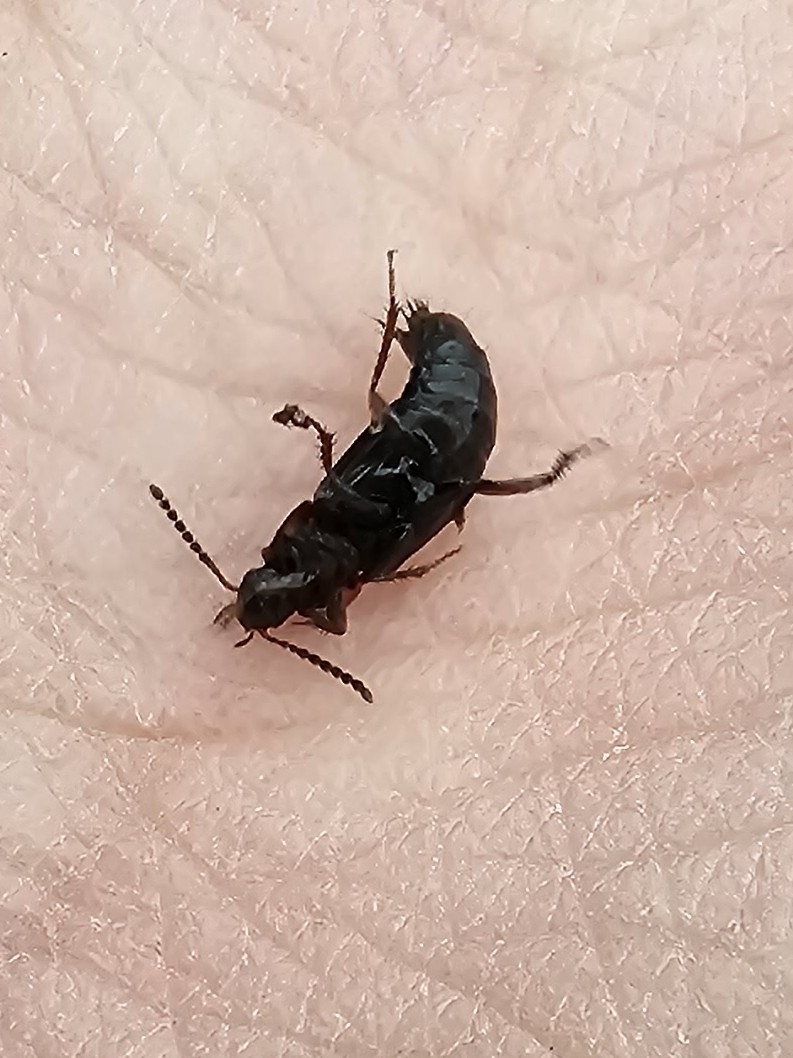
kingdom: Animalia
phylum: Arthropoda
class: Insecta
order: Coleoptera
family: Staphylinidae
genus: Tachinus
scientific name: Tachinus subterraneus
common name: Staph beetle
